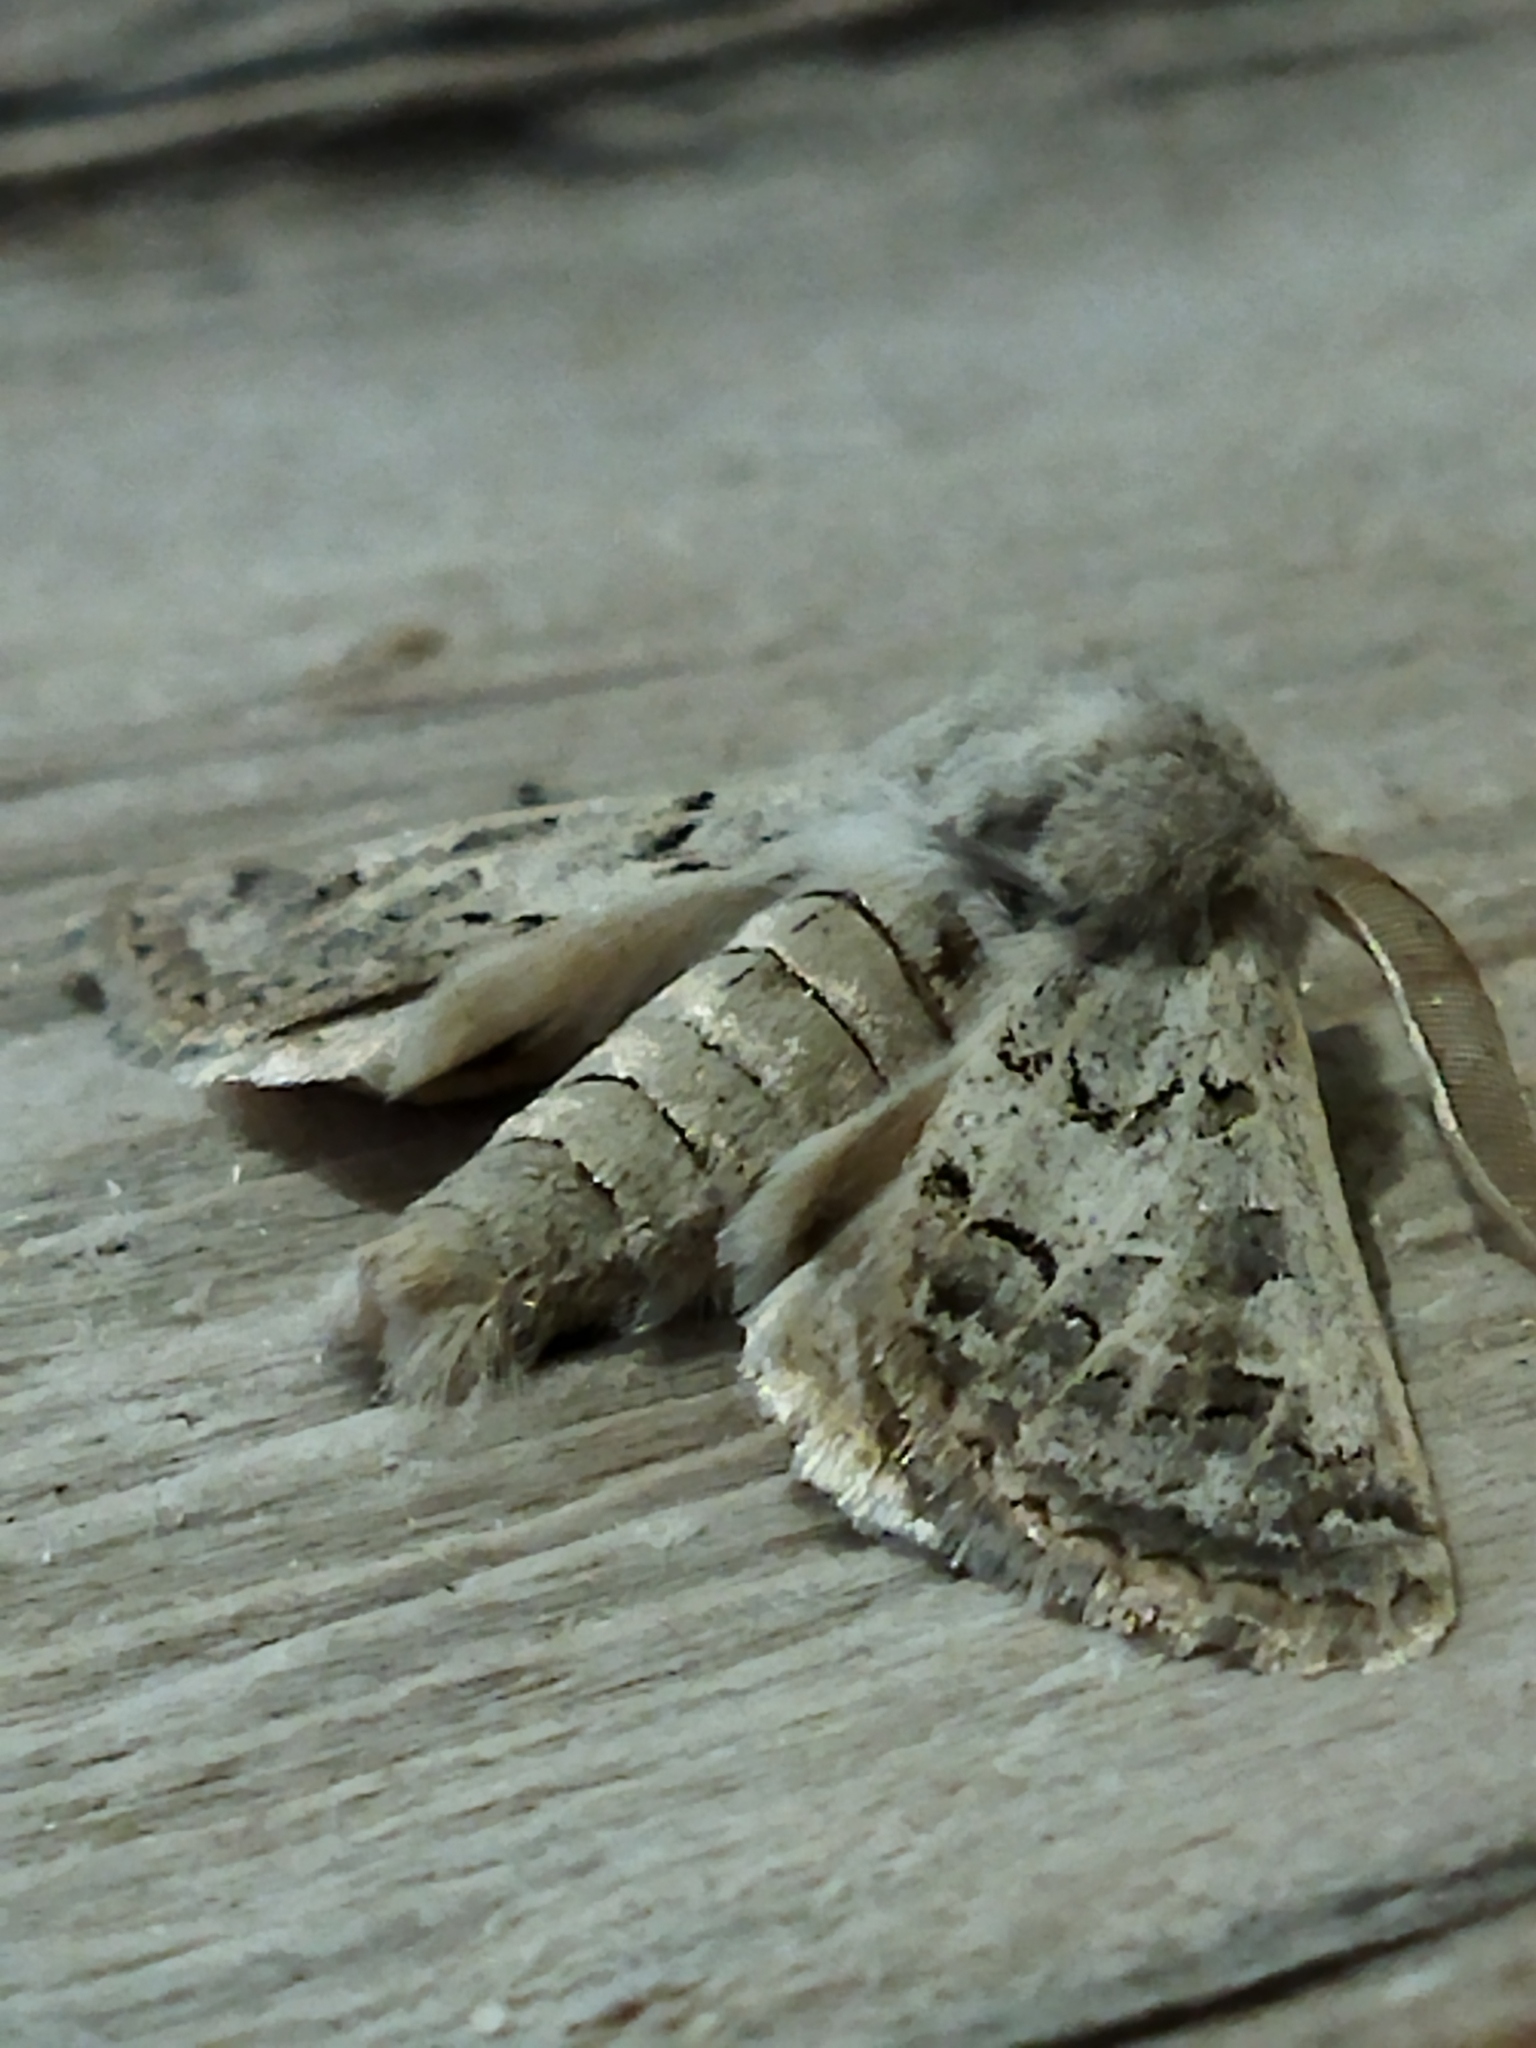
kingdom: Animalia
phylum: Arthropoda
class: Insecta
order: Lepidoptera
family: Noctuidae
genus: Episema
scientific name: Episema lederi
